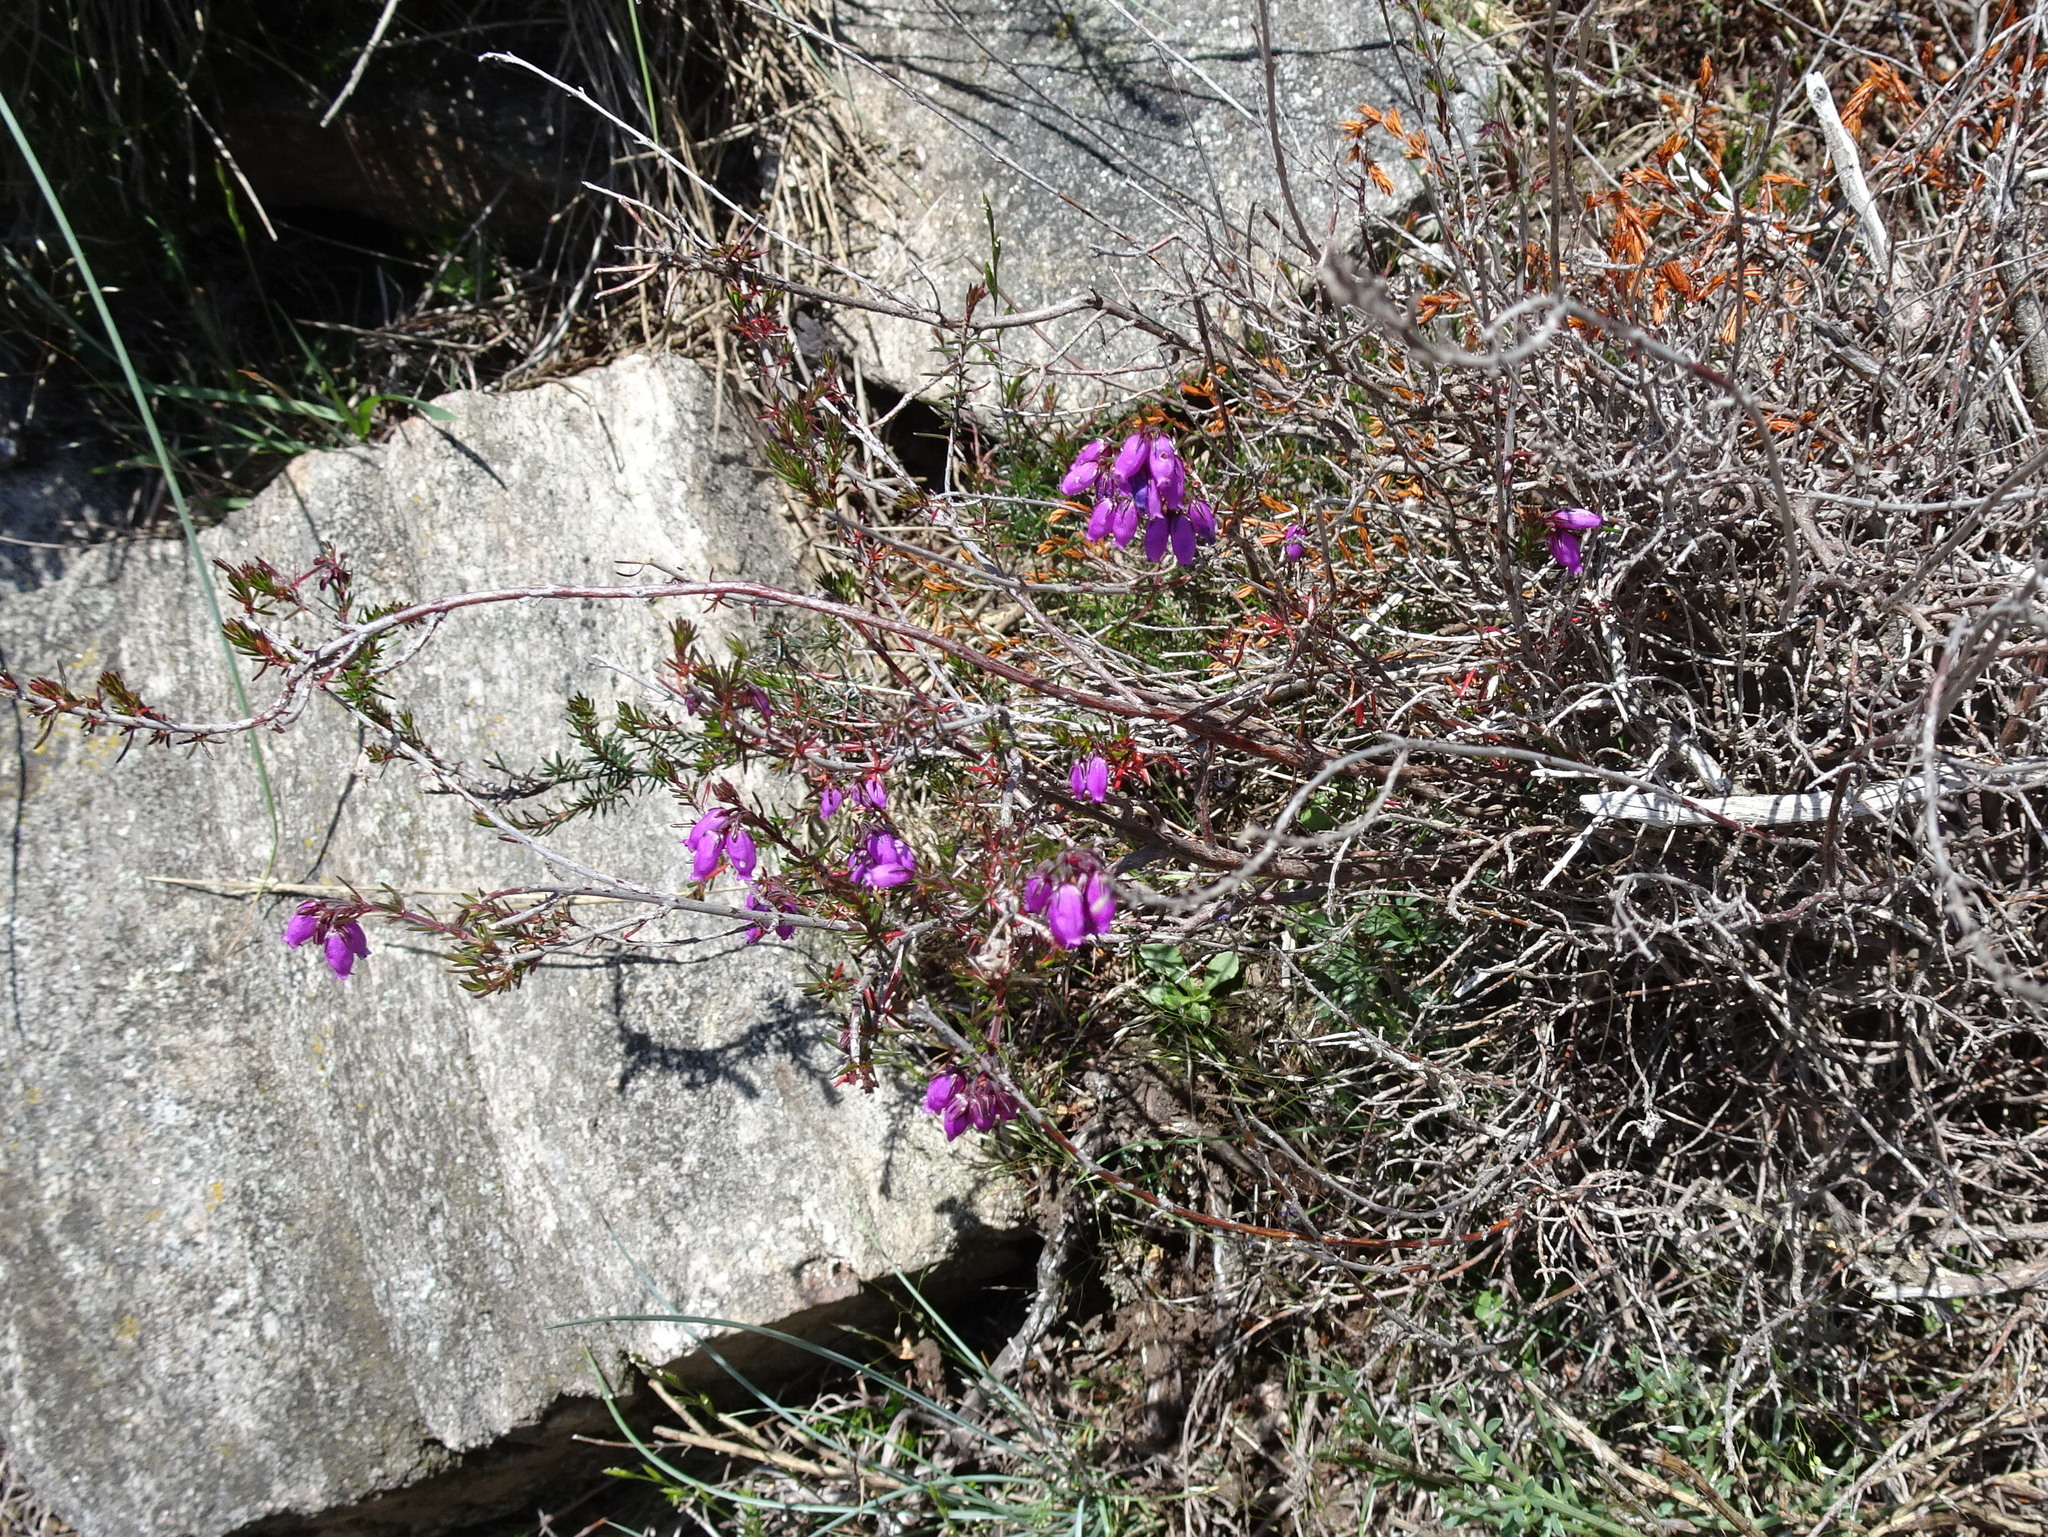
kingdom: Plantae
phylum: Tracheophyta
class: Magnoliopsida
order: Ericales
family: Ericaceae
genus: Erica
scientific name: Erica cinerea
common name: Bell heather
